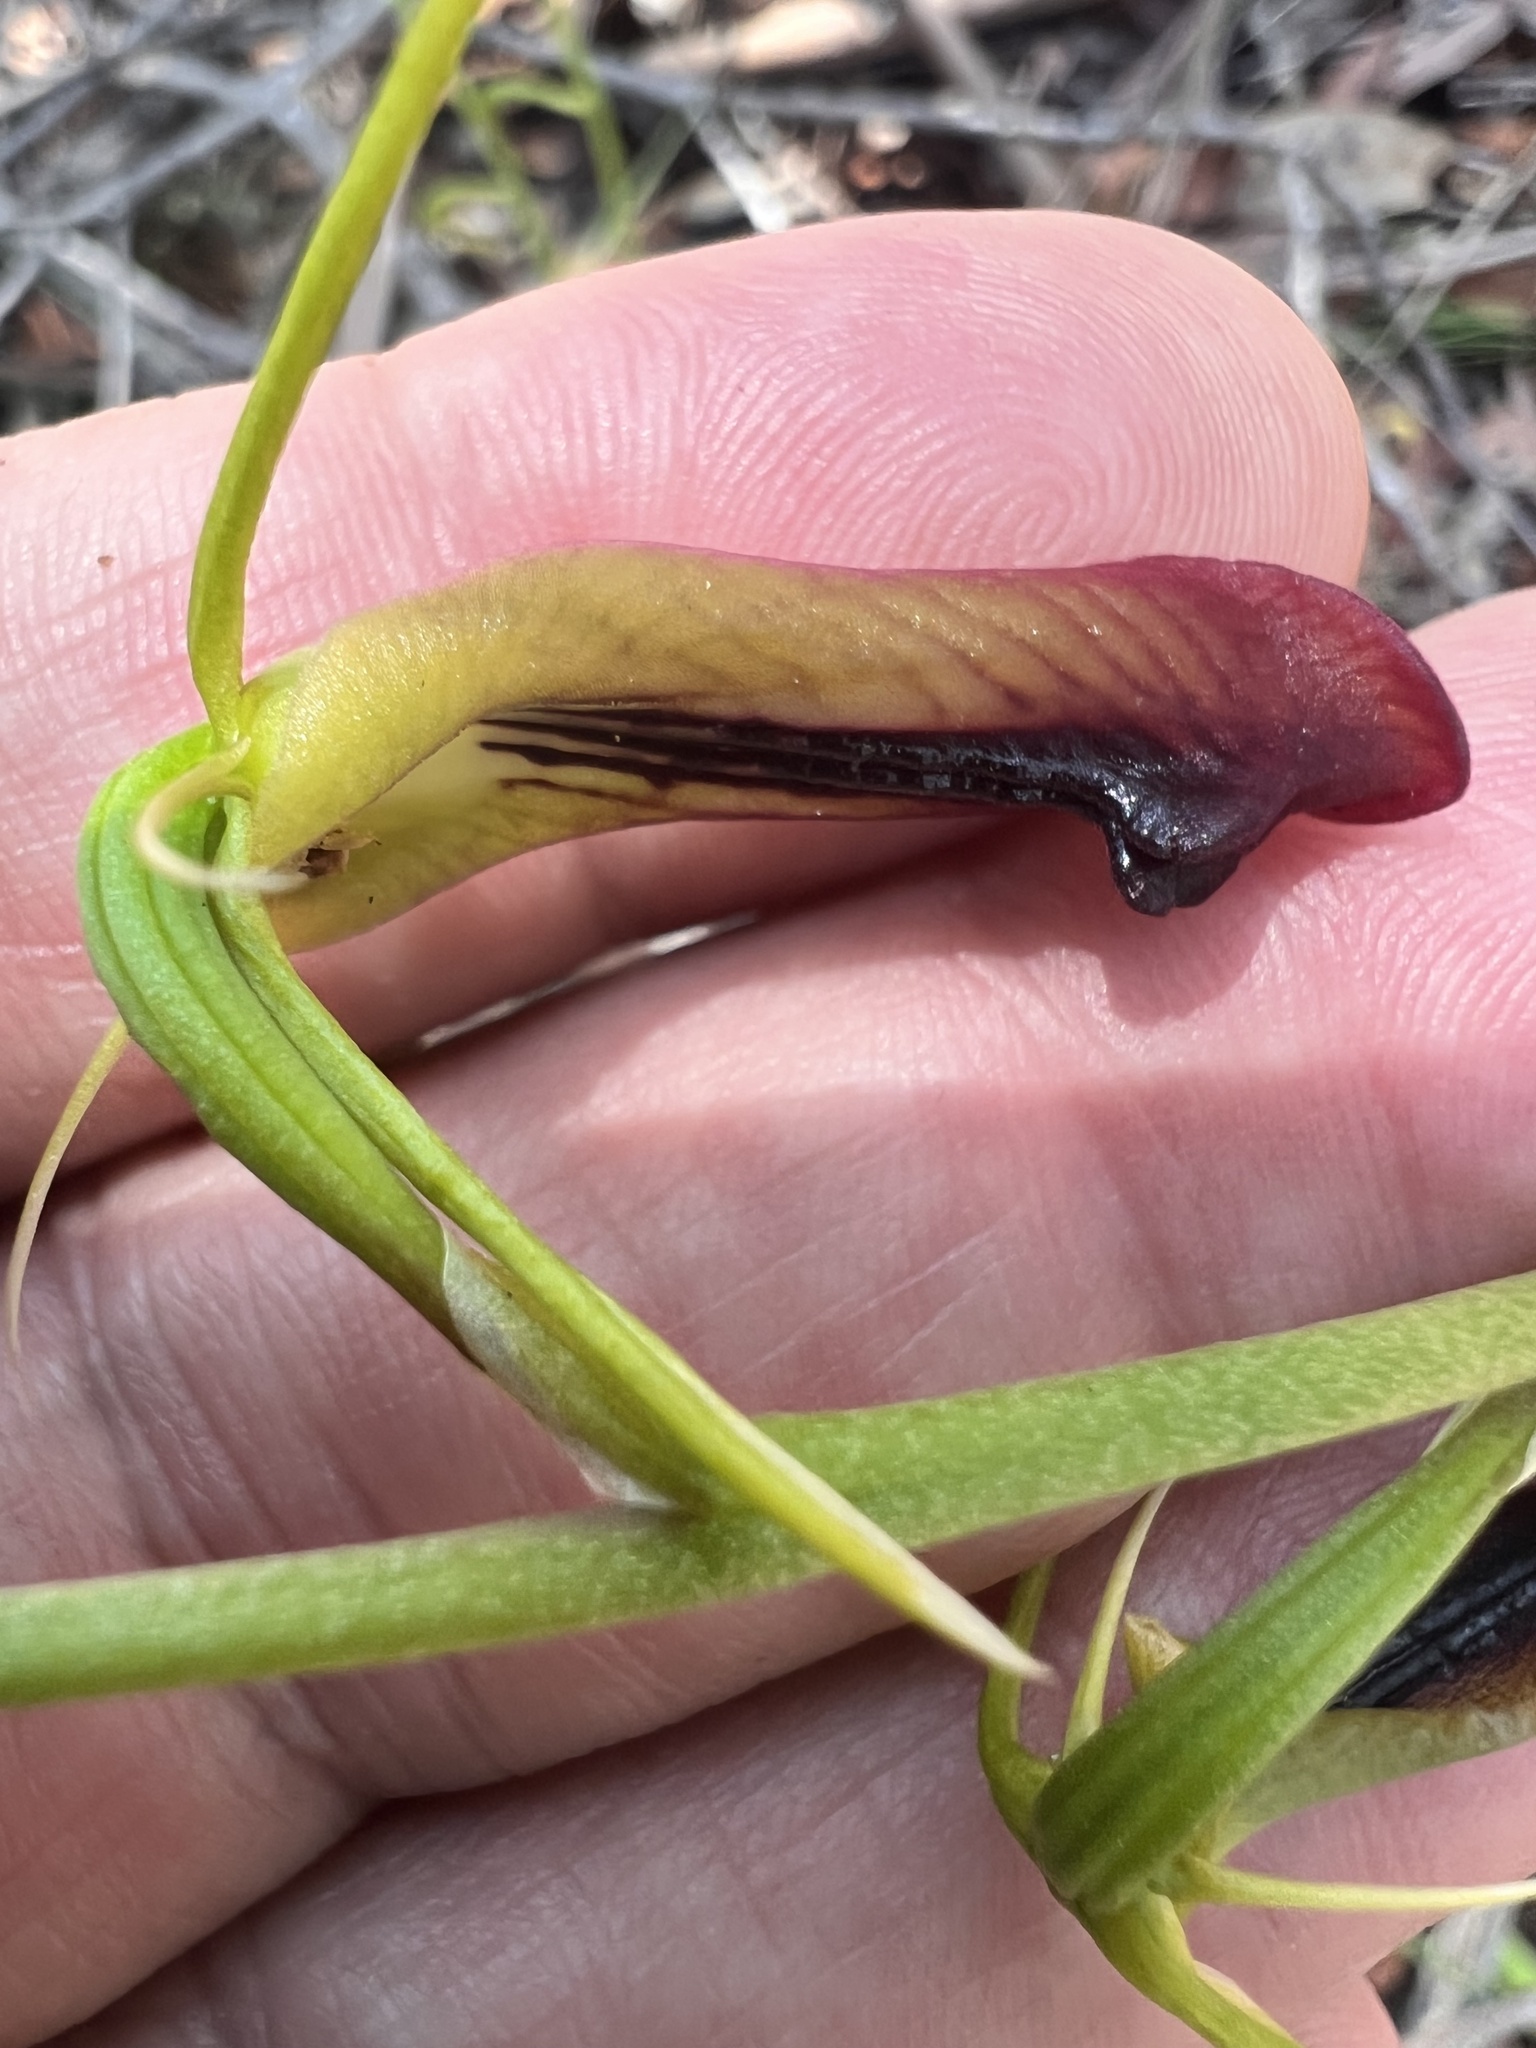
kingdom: Plantae
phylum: Tracheophyta
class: Liliopsida
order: Asparagales
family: Orchidaceae
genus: Cryptostylis
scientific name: Cryptostylis subulata
